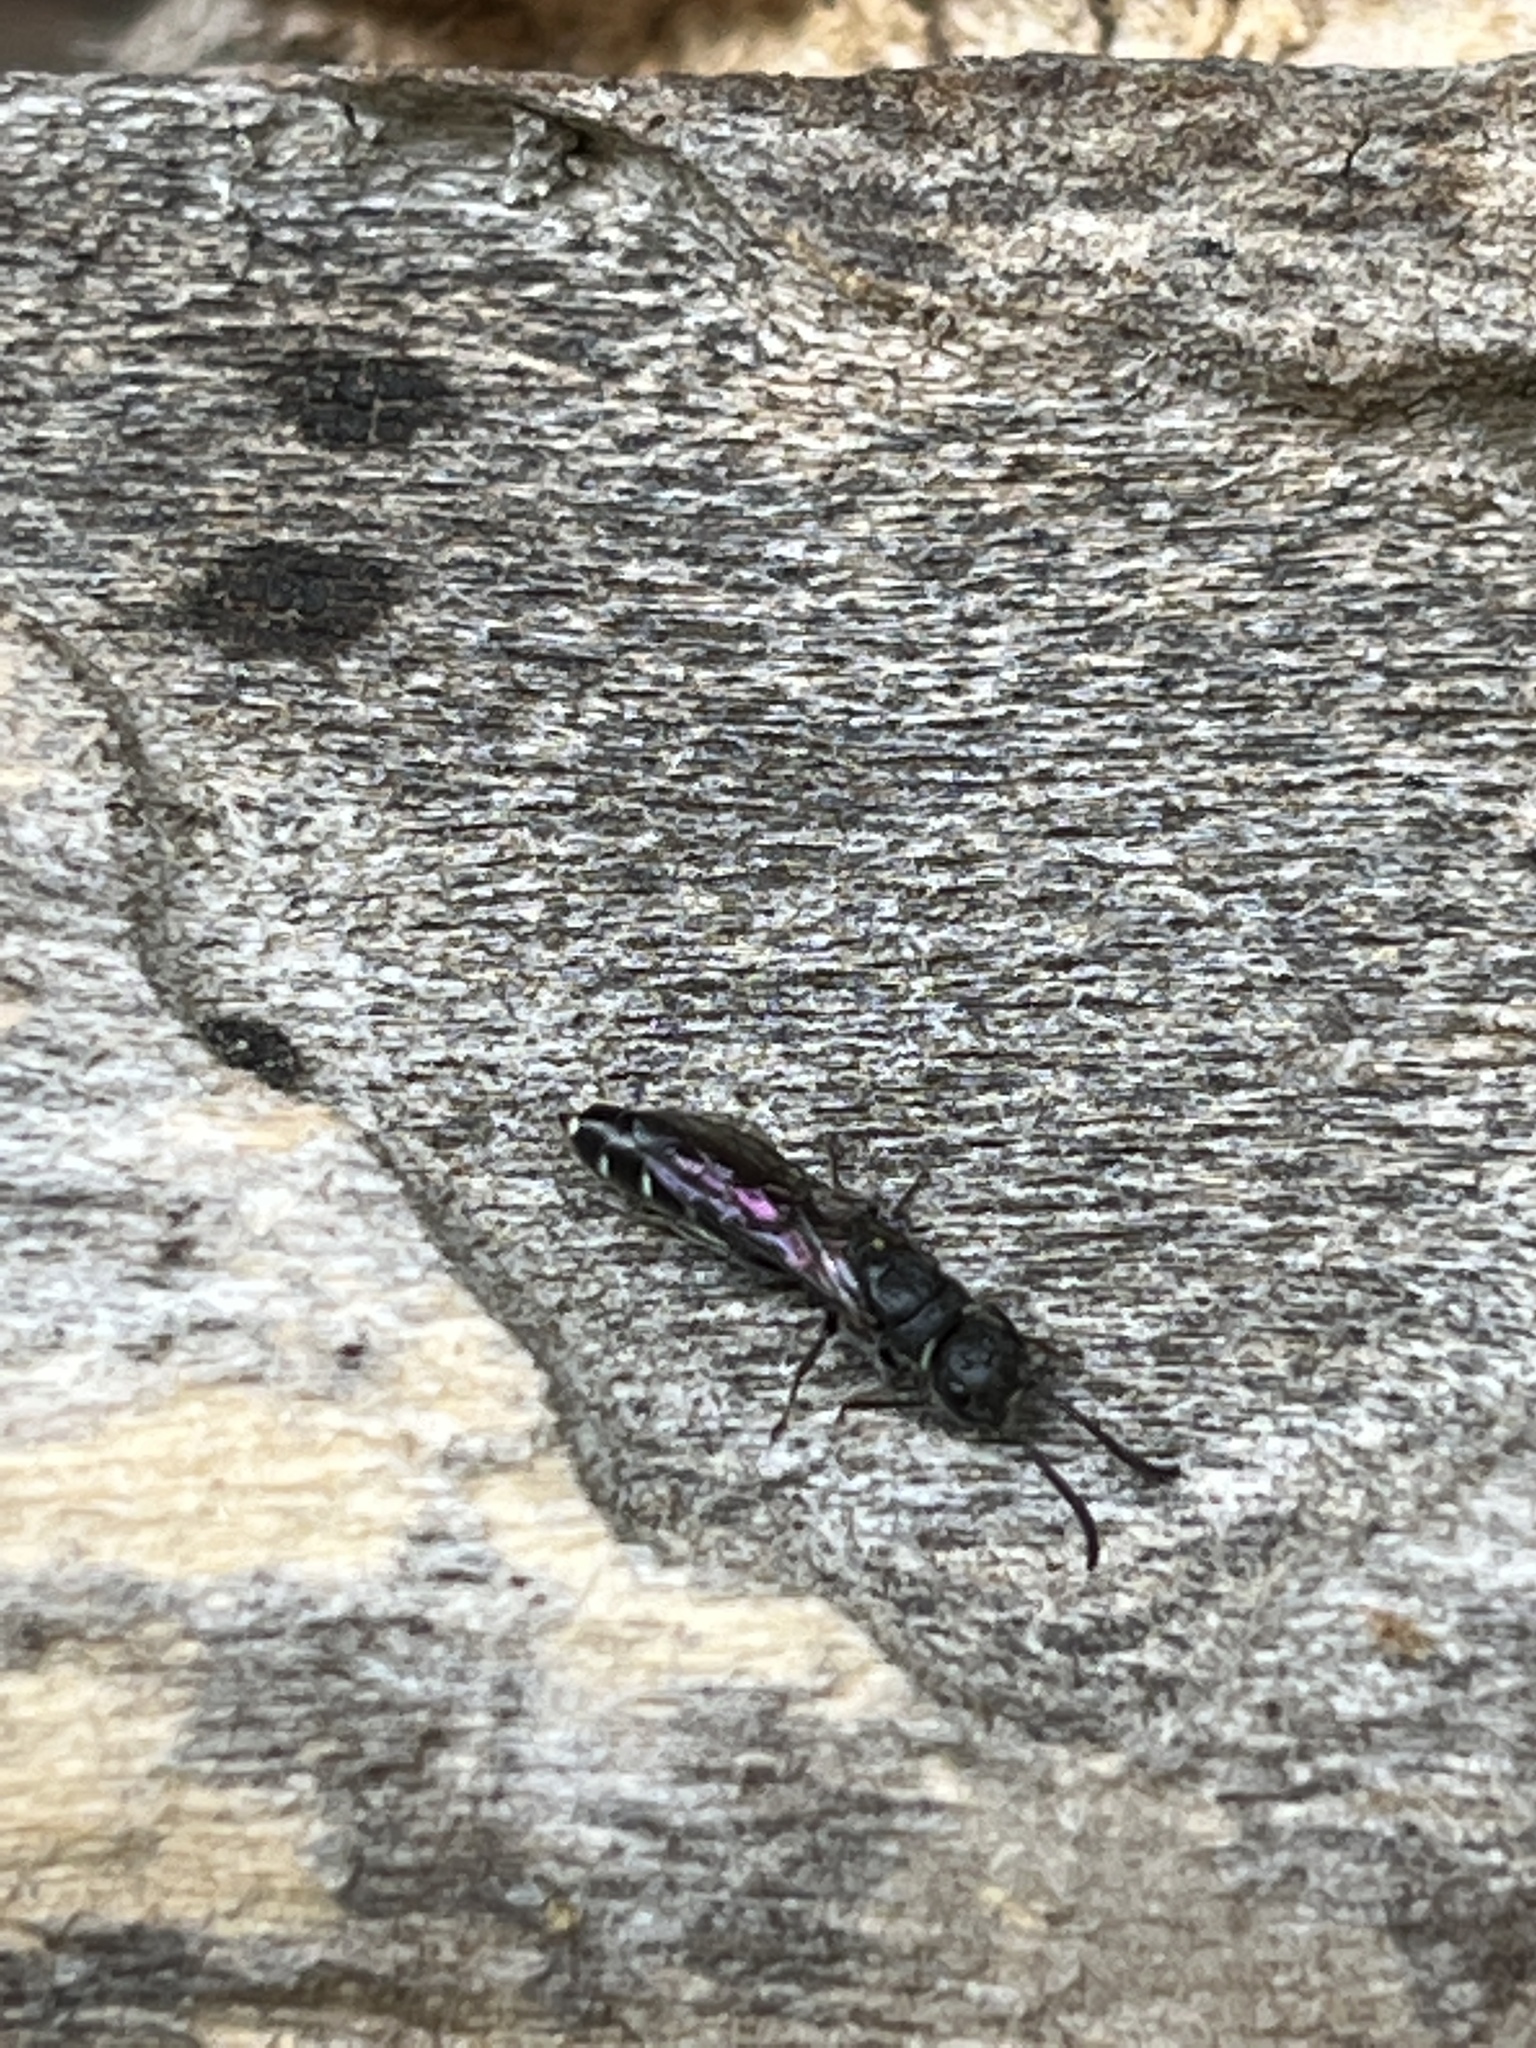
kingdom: Animalia
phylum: Arthropoda
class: Insecta
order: Hymenoptera
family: Sapygidae
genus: Sapygina
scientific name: Sapygina decemguttata
